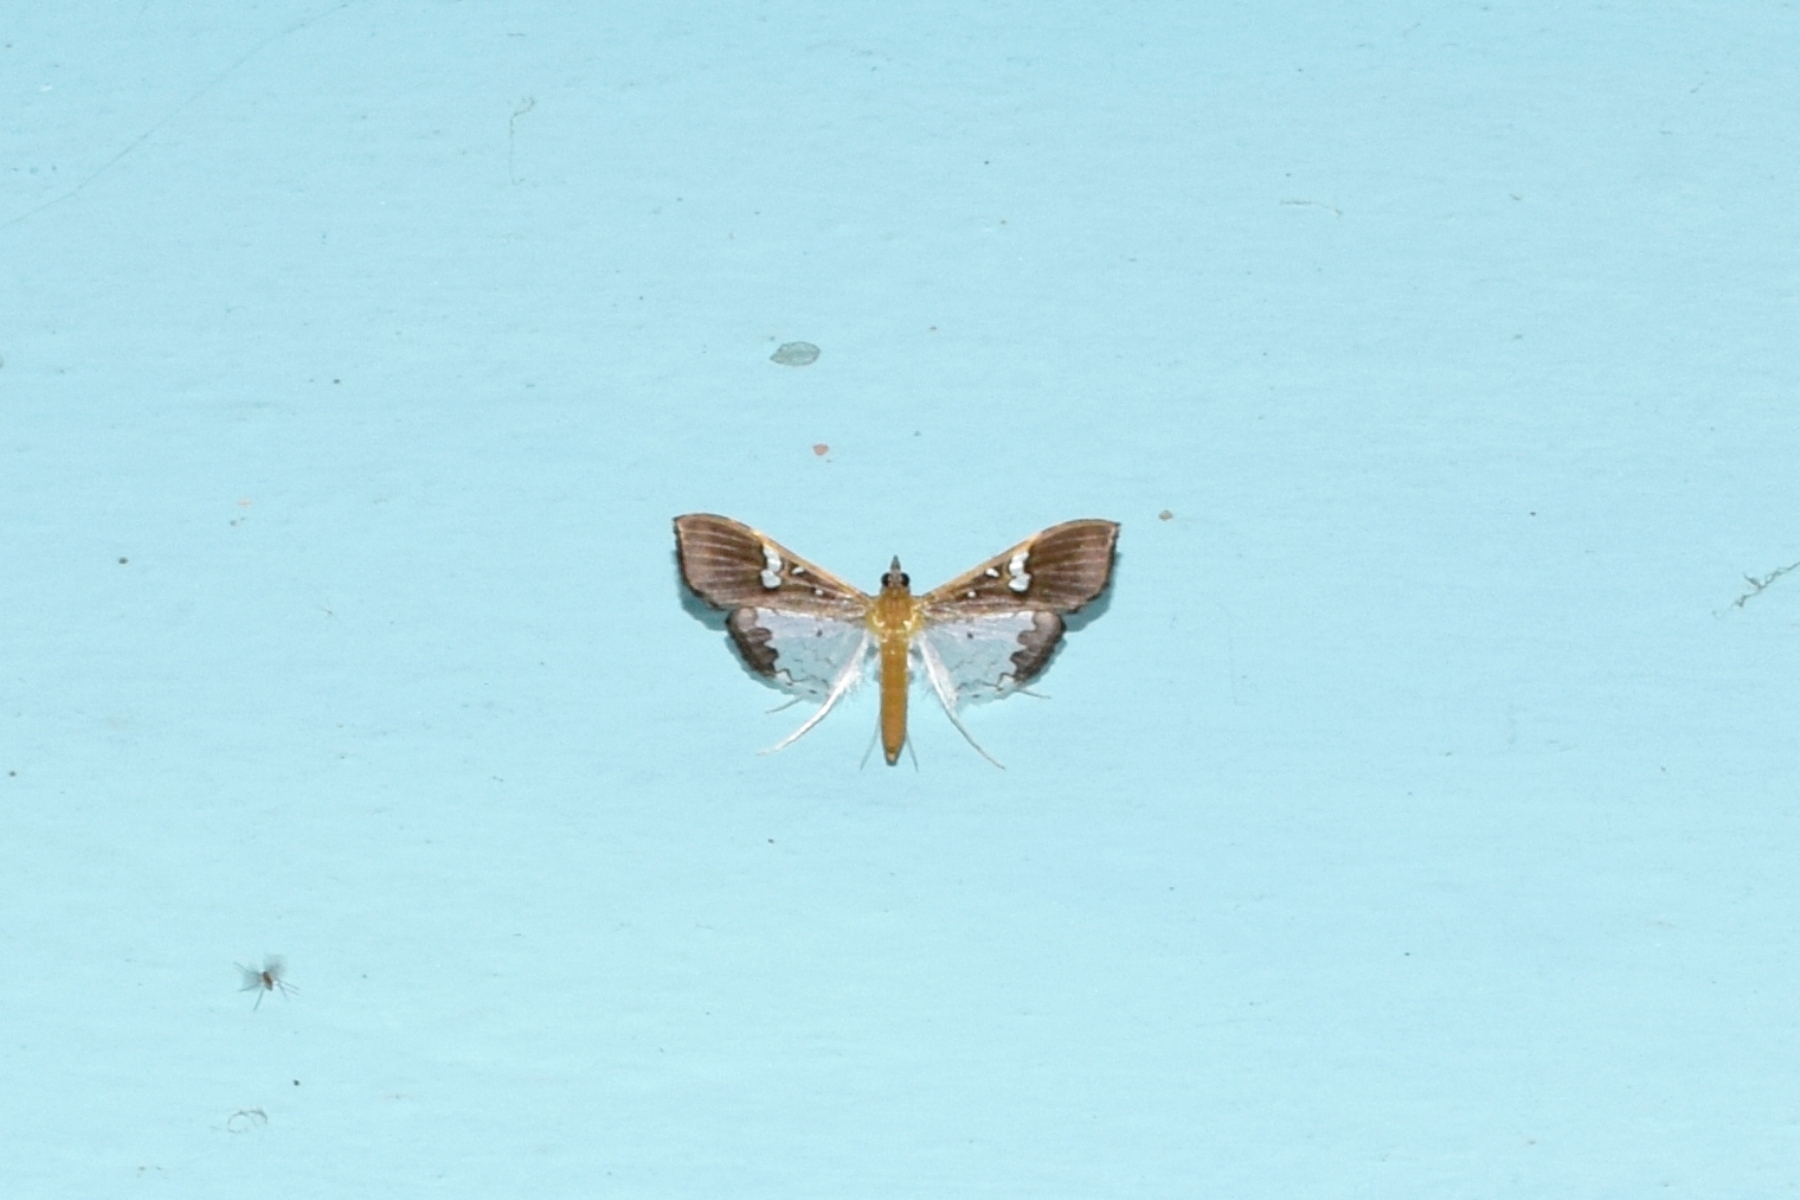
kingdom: Animalia
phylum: Arthropoda
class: Insecta
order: Lepidoptera
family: Crambidae
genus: Maruca
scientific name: Maruca vitrata
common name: Maruca pod borer
